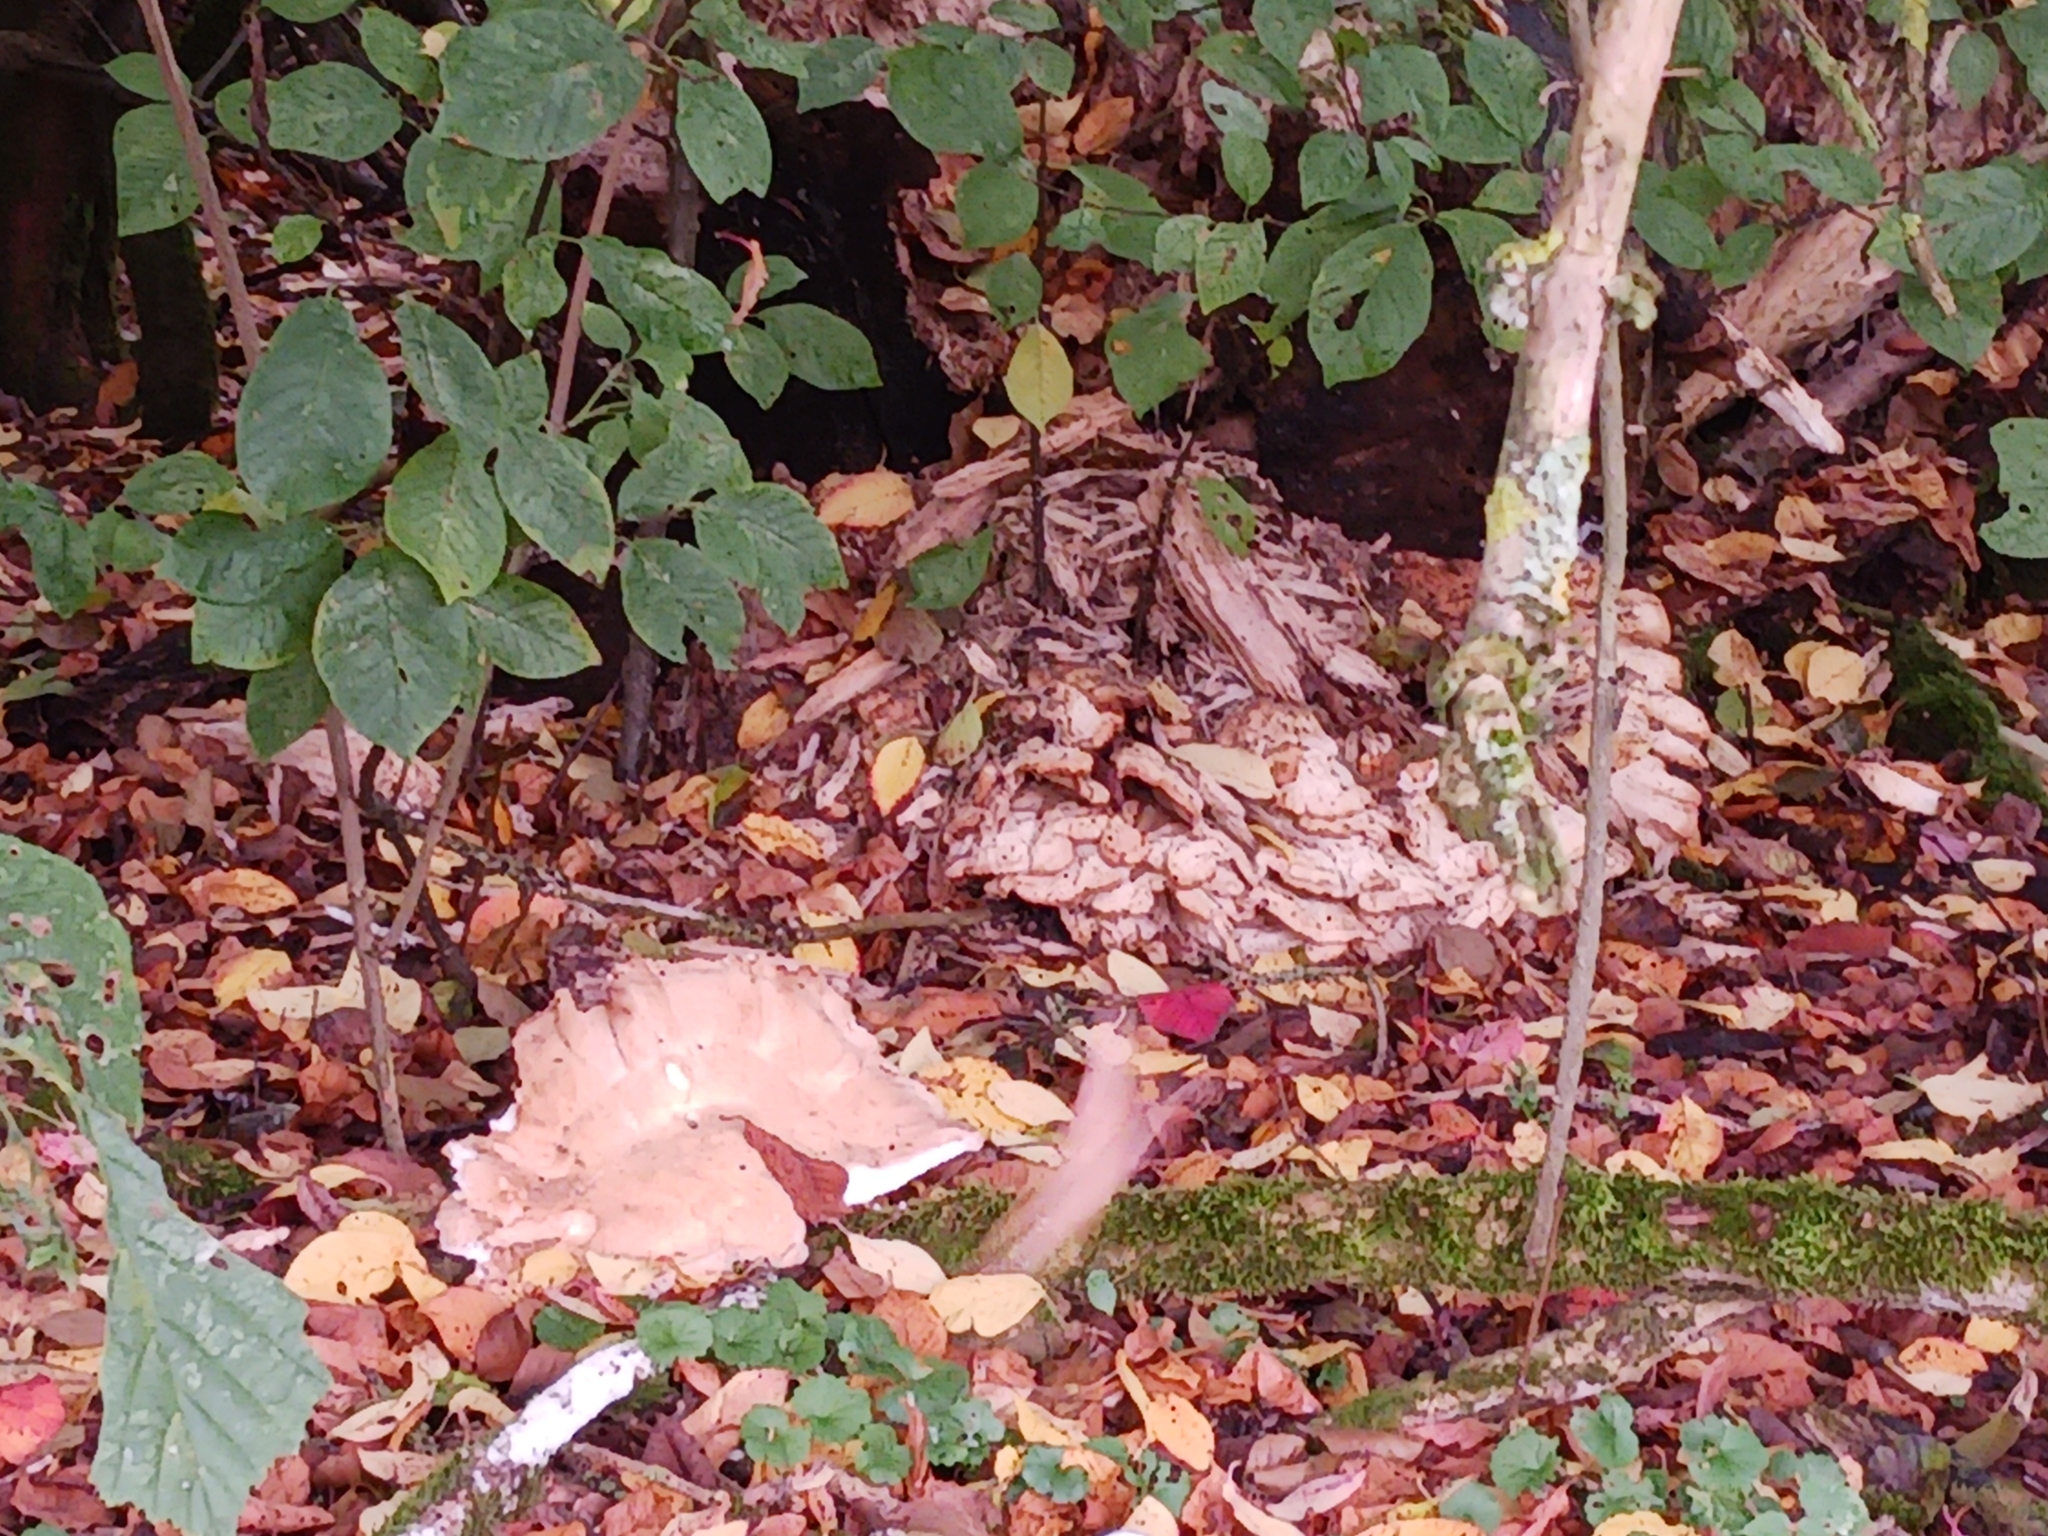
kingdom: Fungi
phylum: Basidiomycota
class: Agaricomycetes
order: Polyporales
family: Meripilaceae
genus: Meripilus
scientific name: Meripilus giganteus
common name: Giant polypore
